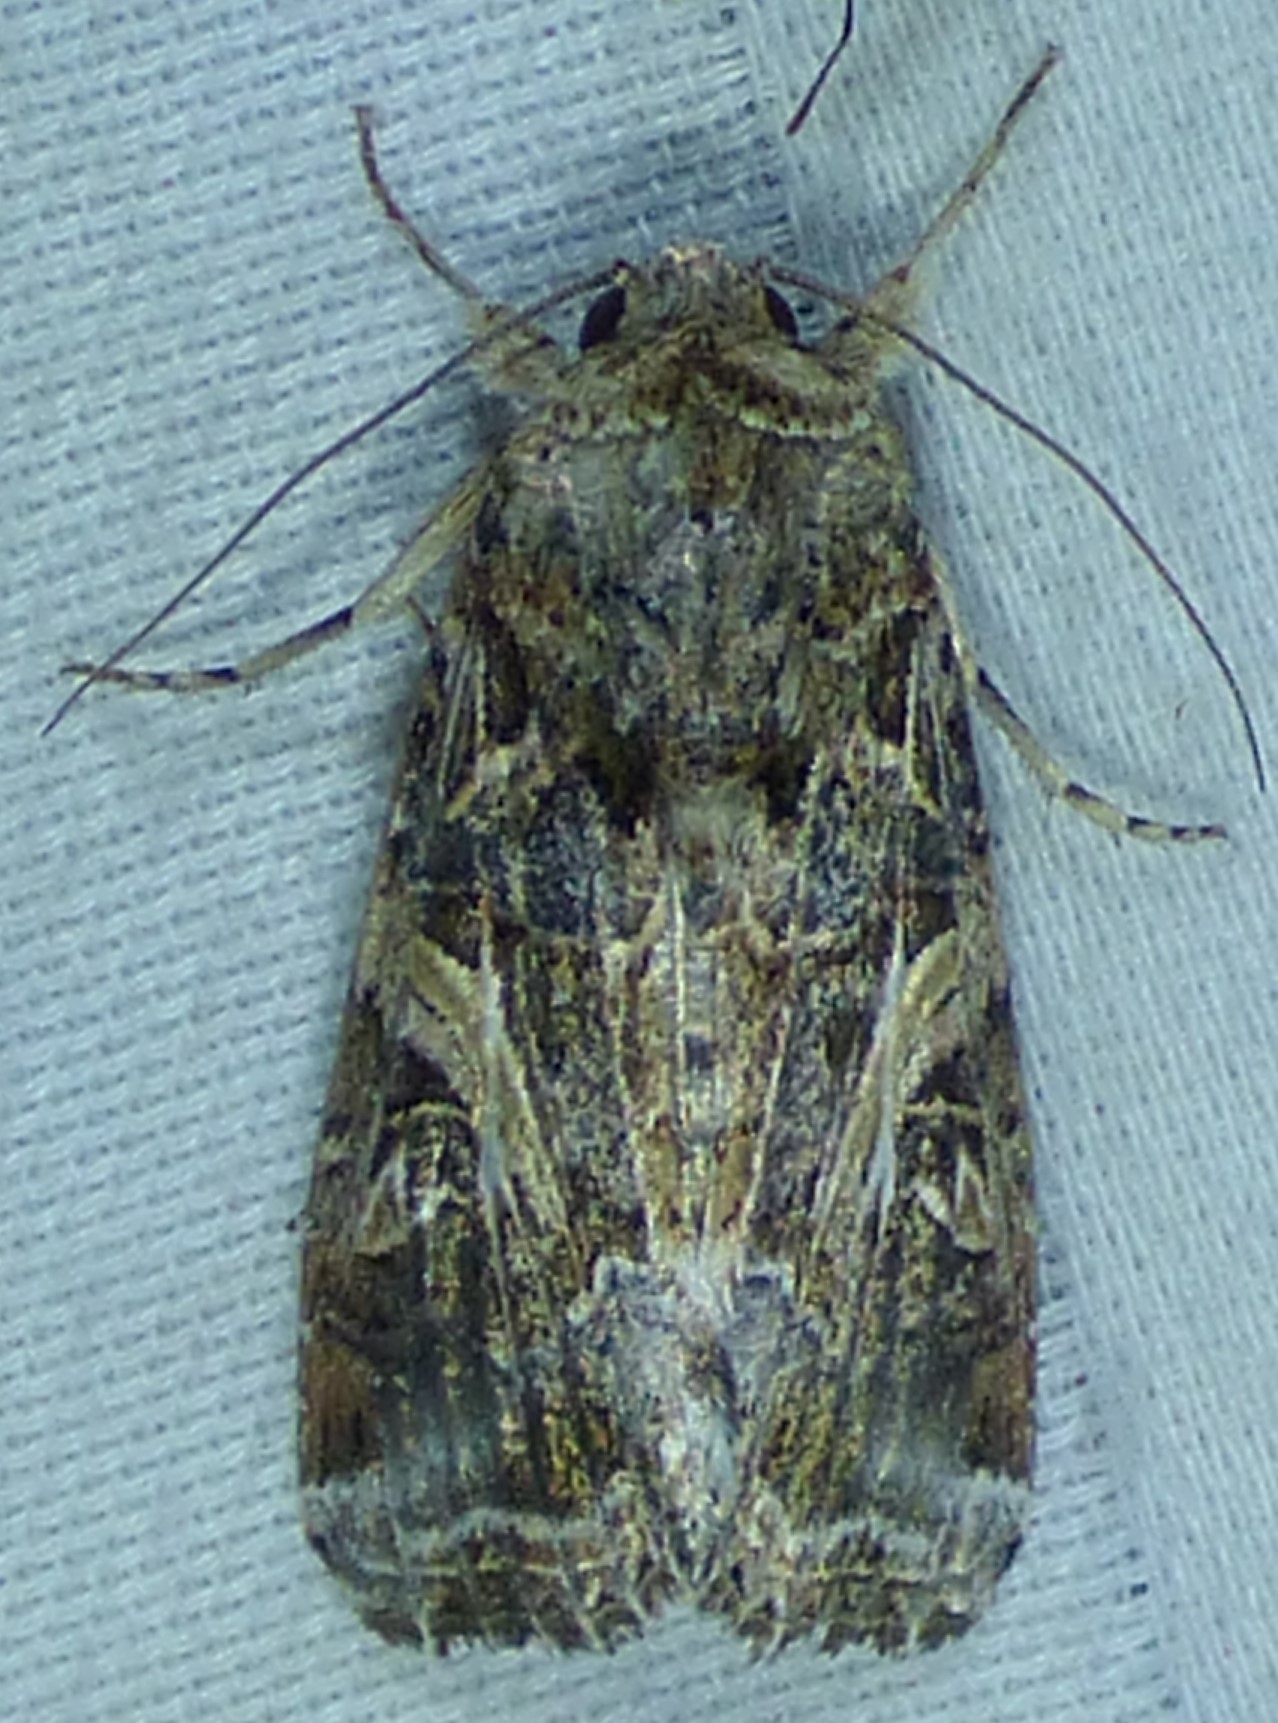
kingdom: Animalia
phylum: Arthropoda
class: Insecta
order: Lepidoptera
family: Noctuidae
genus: Spodoptera
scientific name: Spodoptera ornithogalli
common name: Yellow-striped armyworm
